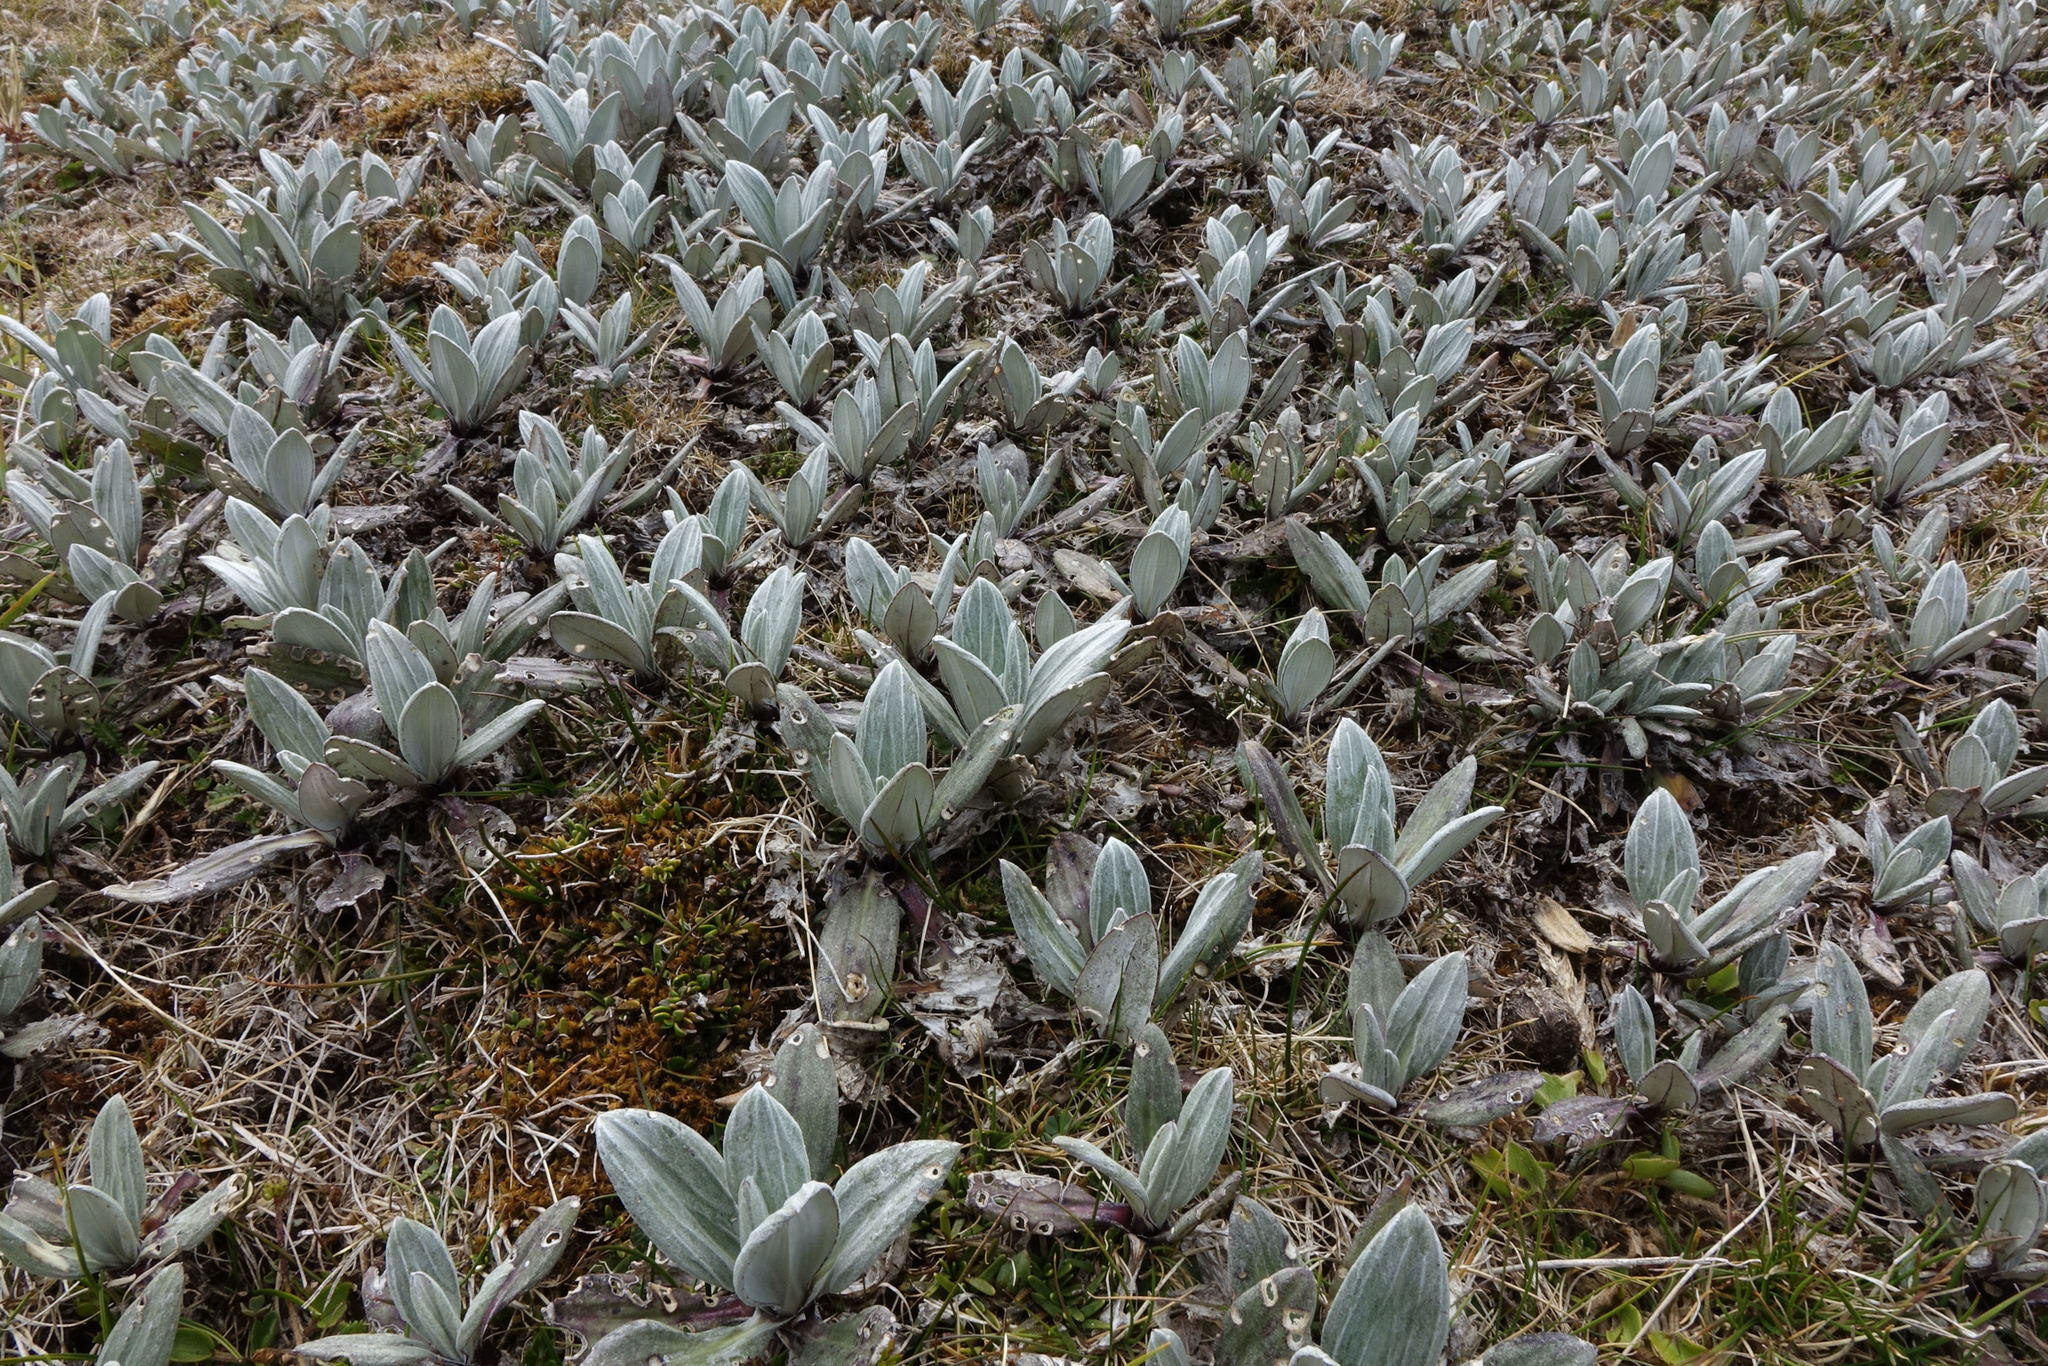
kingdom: Plantae
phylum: Tracheophyta
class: Magnoliopsida
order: Asterales
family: Asteraceae
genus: Celmisia
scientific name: Celmisia haastii
